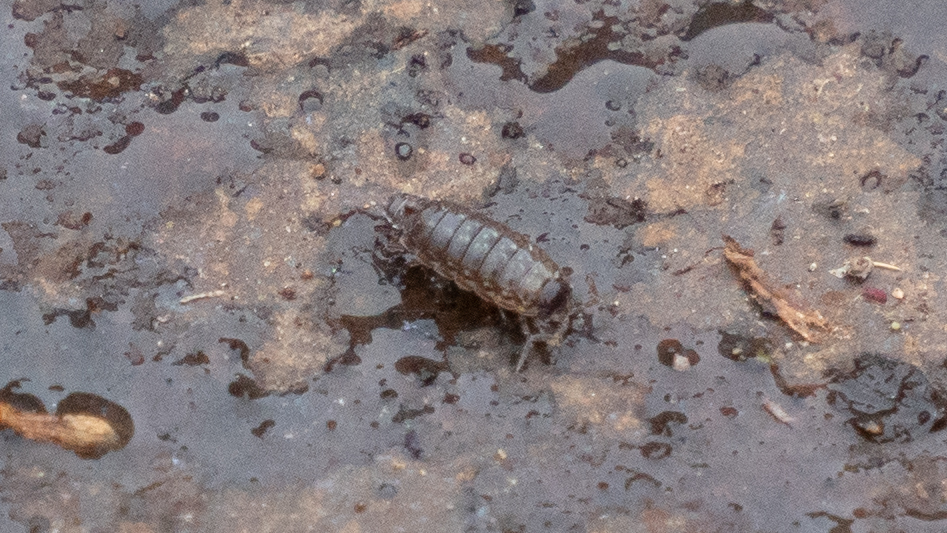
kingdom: Animalia
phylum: Arthropoda
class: Malacostraca
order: Isopoda
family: Philosciidae
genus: Philoscia
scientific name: Philoscia muscorum
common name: Common striped woodlouse
